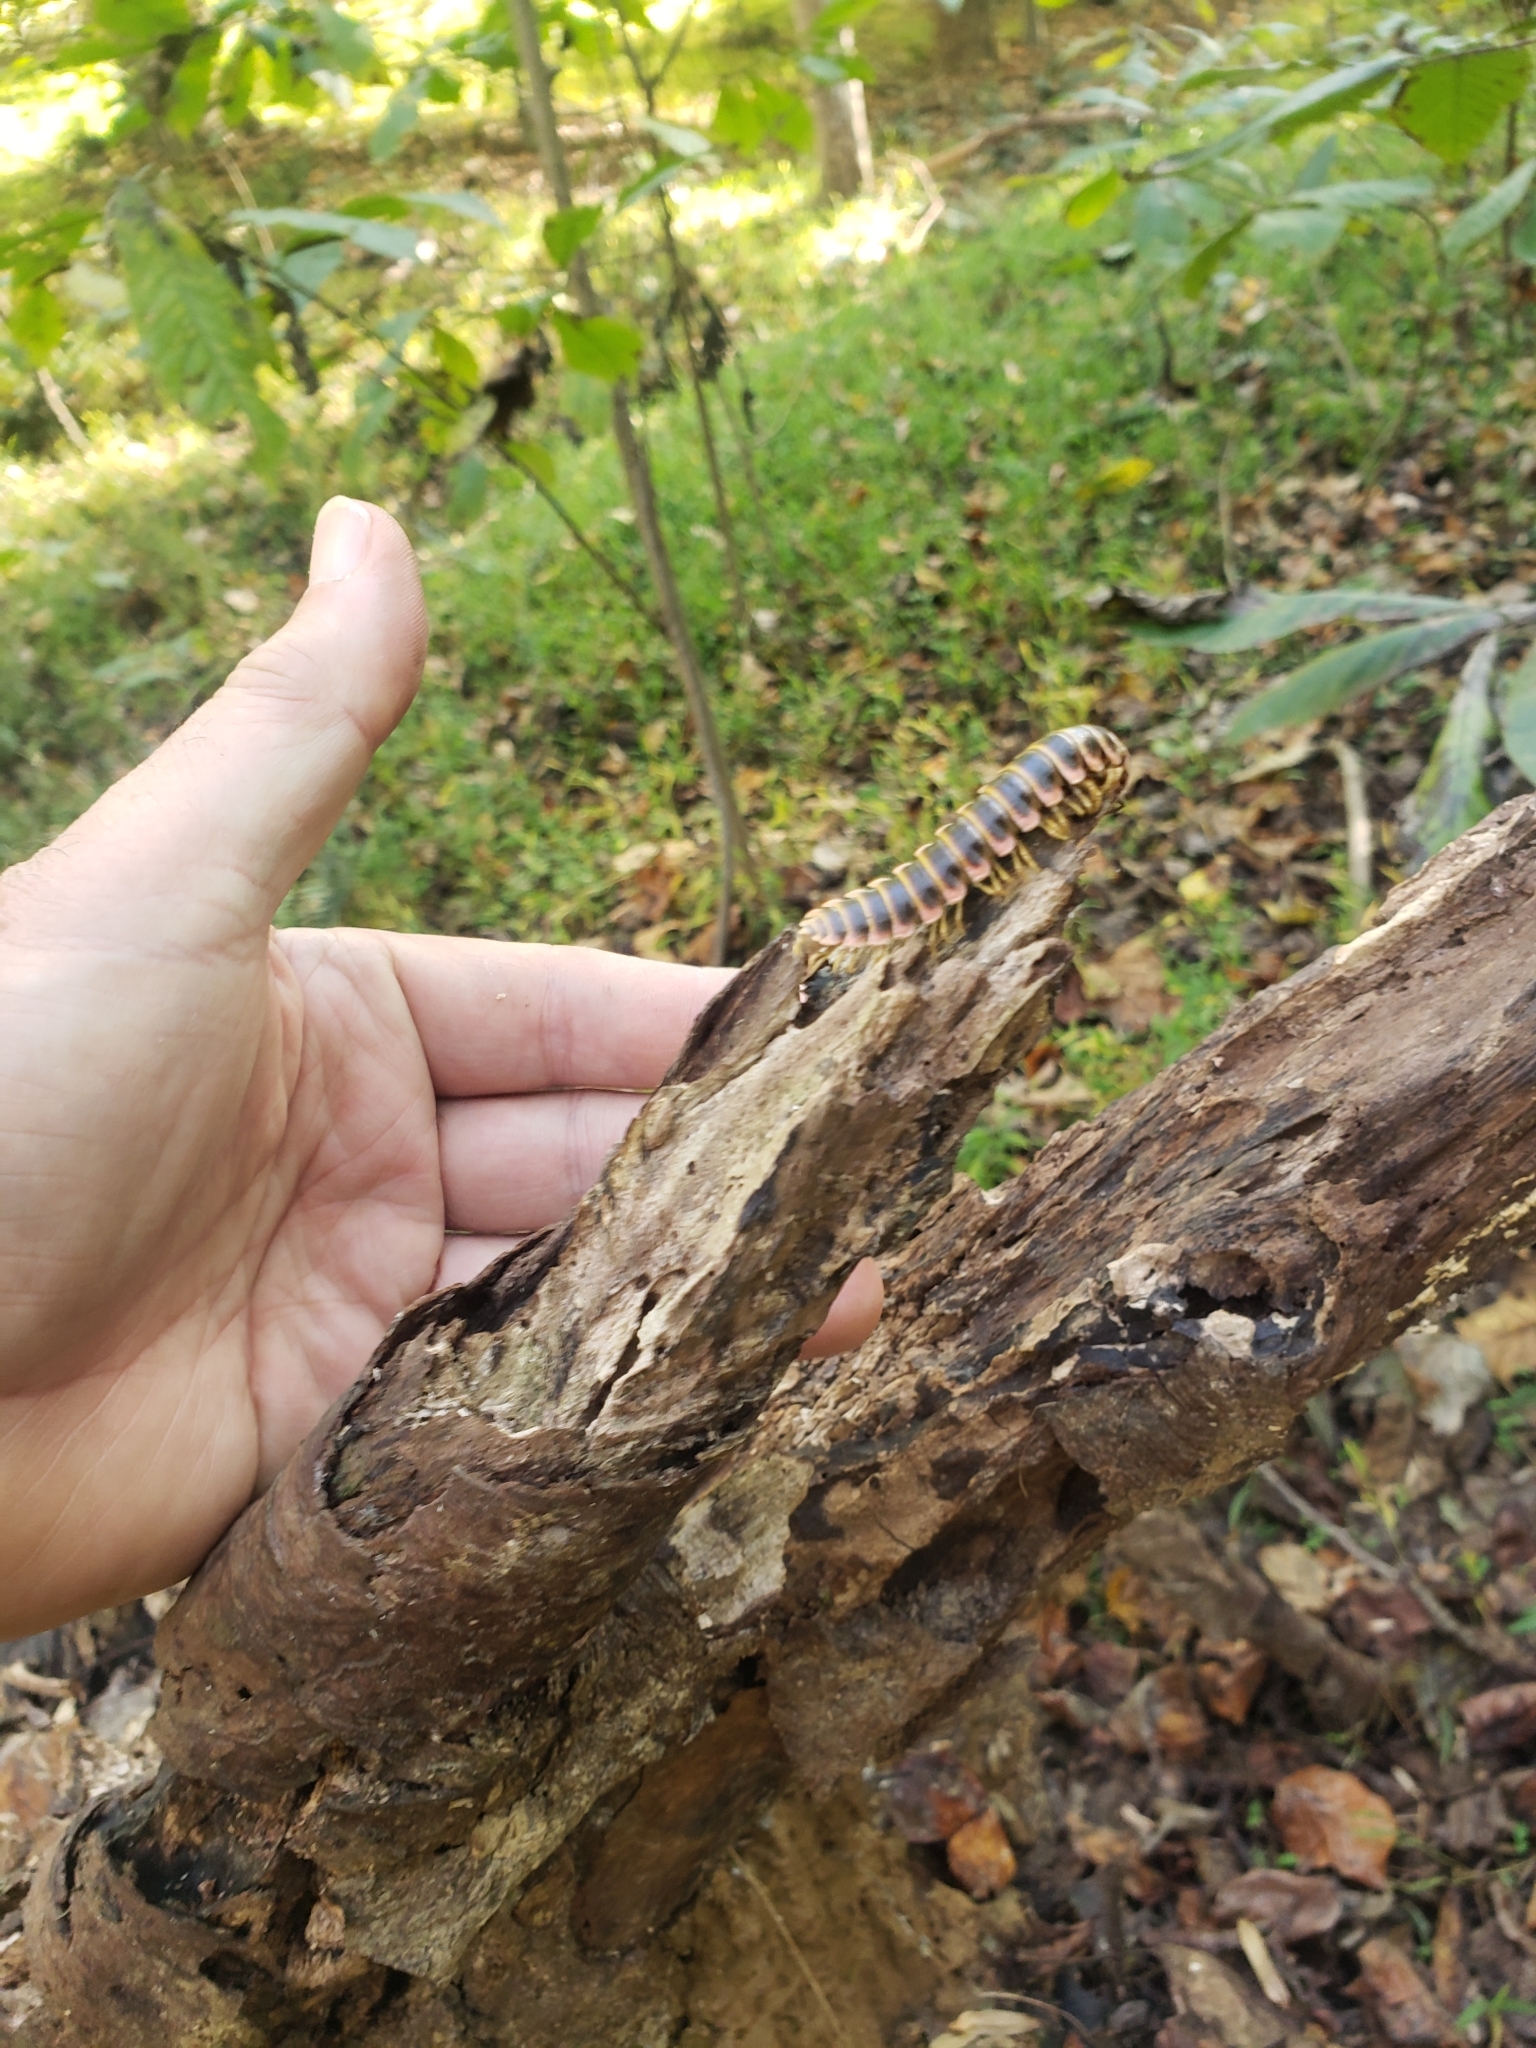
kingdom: Fungi
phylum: Entomophthoromycota
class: Entomophthoromycetes
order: Entomophthorales
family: Entomophthoraceae
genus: Arthrophaga
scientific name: Arthrophaga myriapodina
